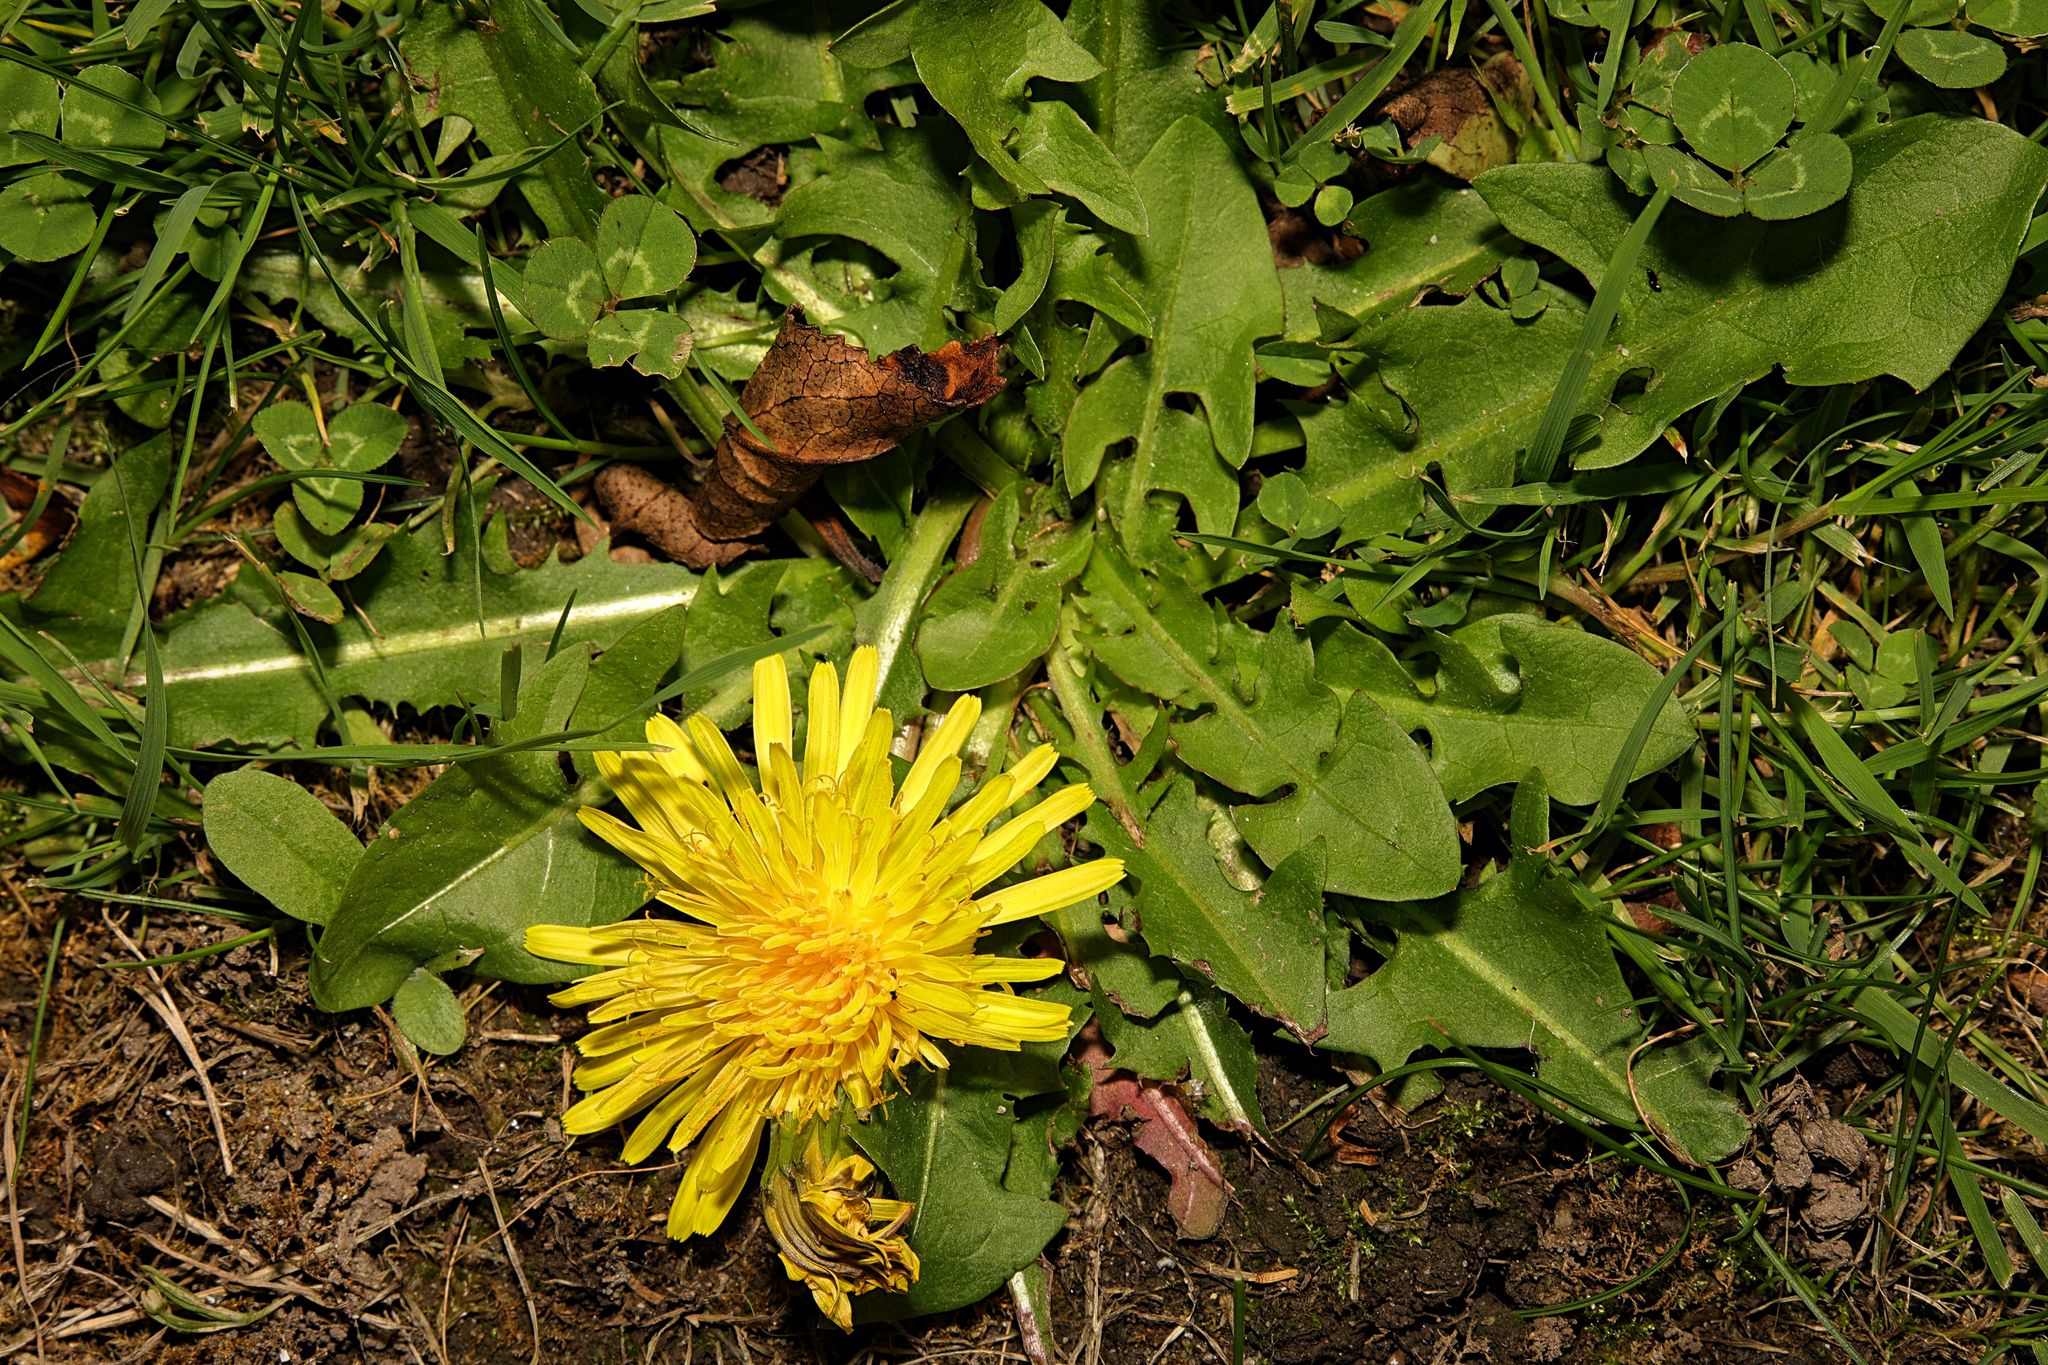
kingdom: Plantae
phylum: Tracheophyta
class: Magnoliopsida
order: Asterales
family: Asteraceae
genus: Taraxacum
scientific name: Taraxacum officinale
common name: Common dandelion
